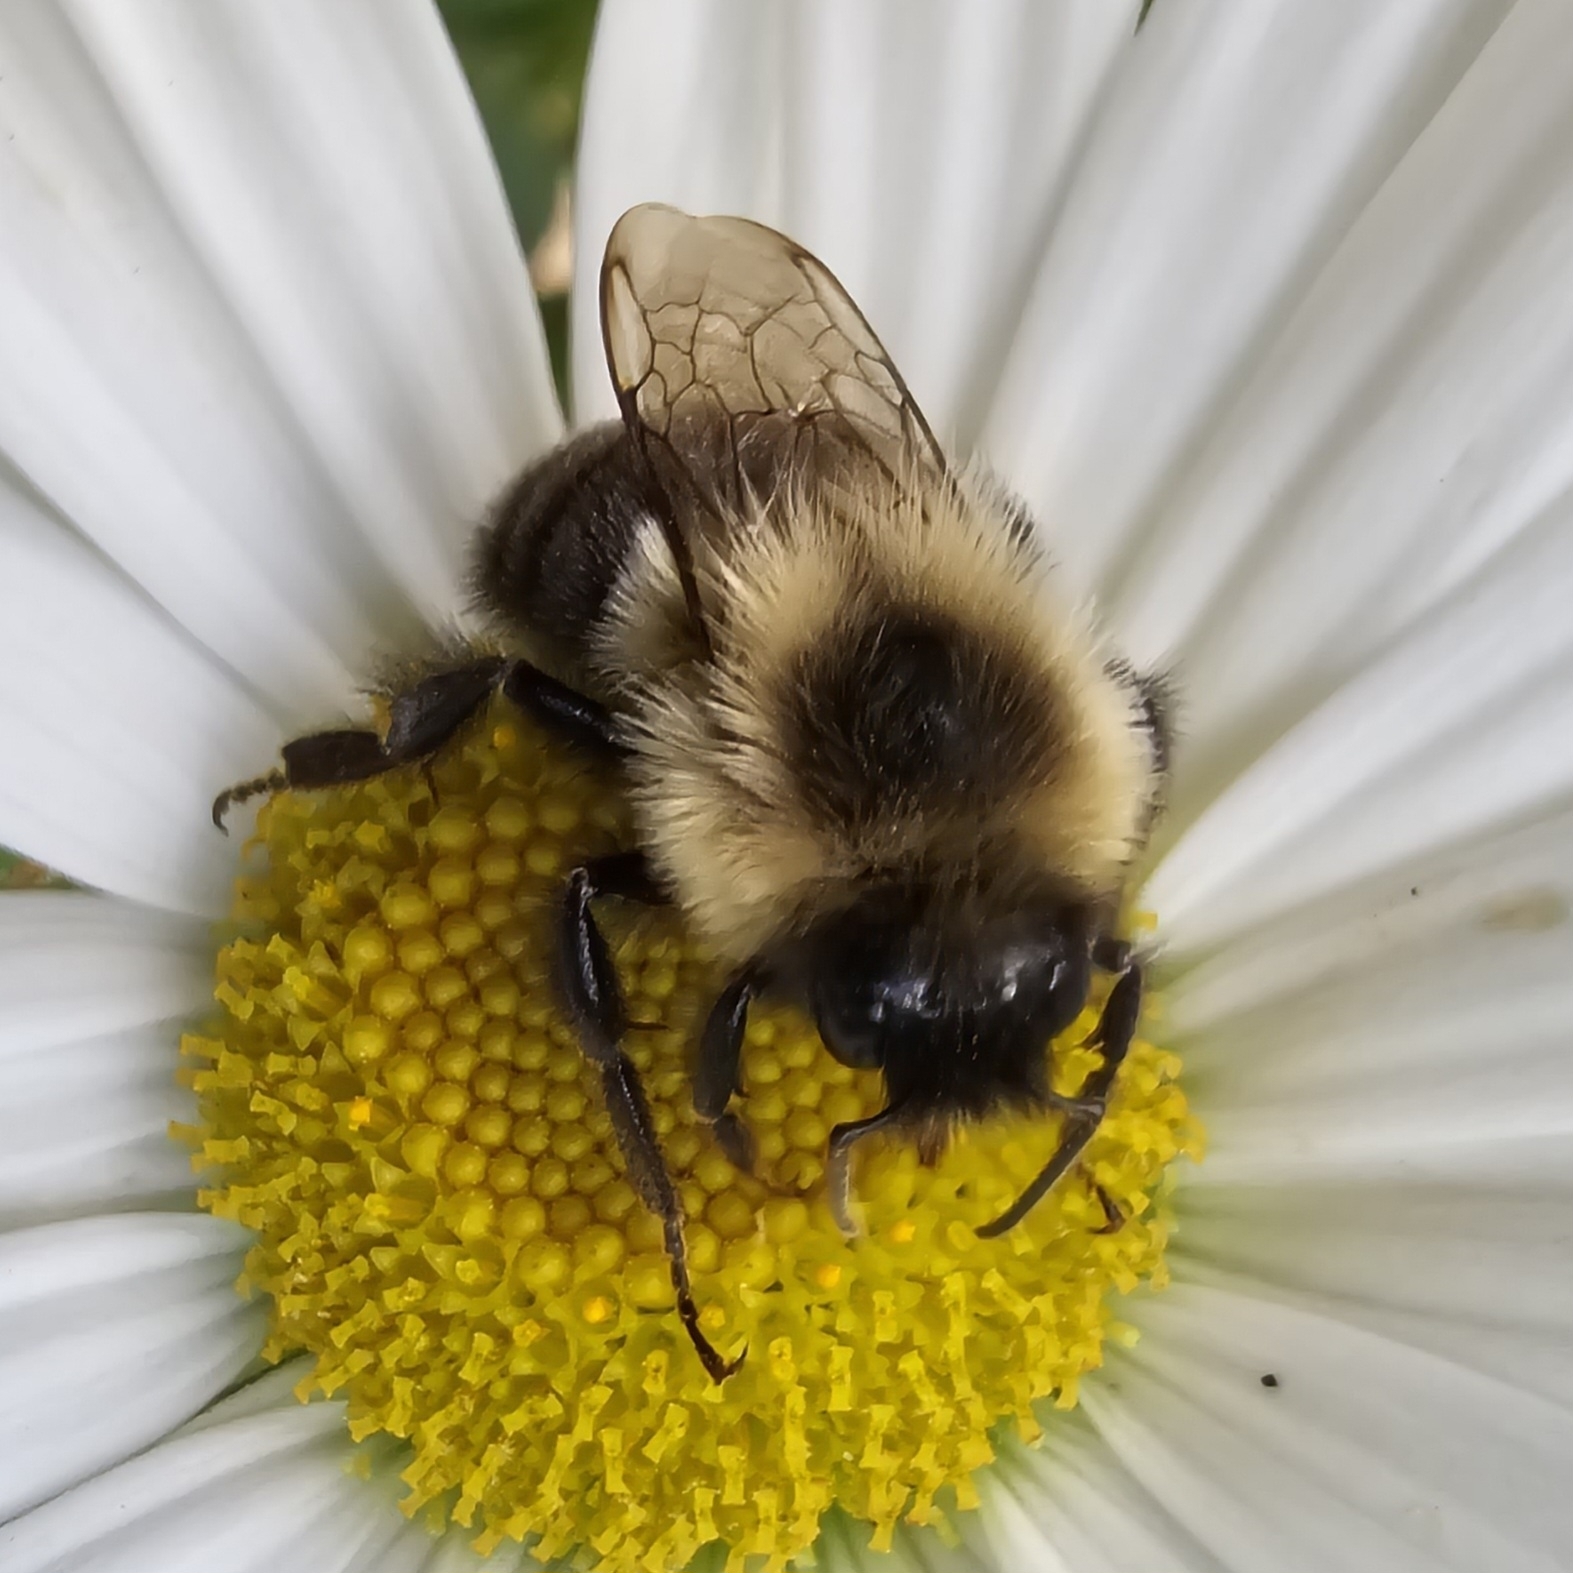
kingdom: Animalia
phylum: Arthropoda
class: Insecta
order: Hymenoptera
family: Apidae
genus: Bombus
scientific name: Bombus impatiens
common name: Common eastern bumble bee
